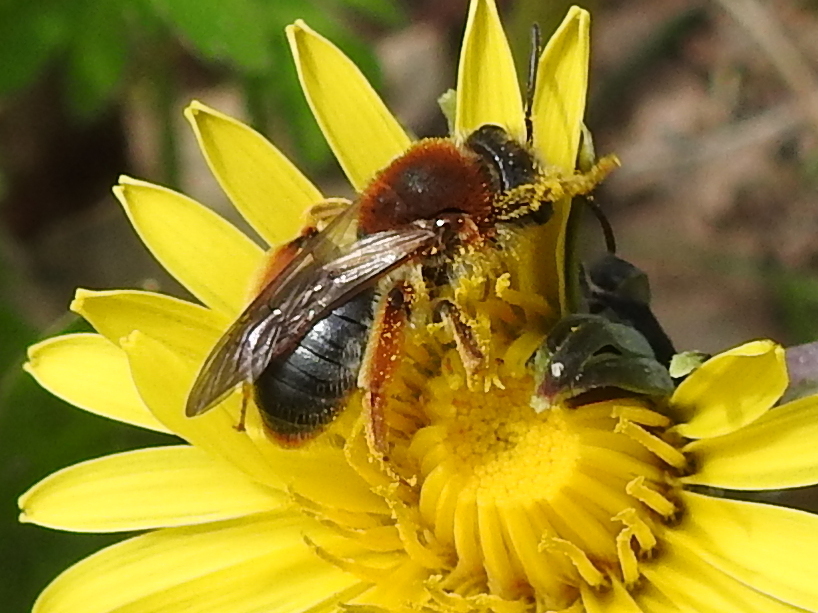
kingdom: Animalia
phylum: Arthropoda
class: Insecta
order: Hymenoptera
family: Andrenidae
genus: Andrena
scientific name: Andrena haemorrhoa
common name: Early mining bee
